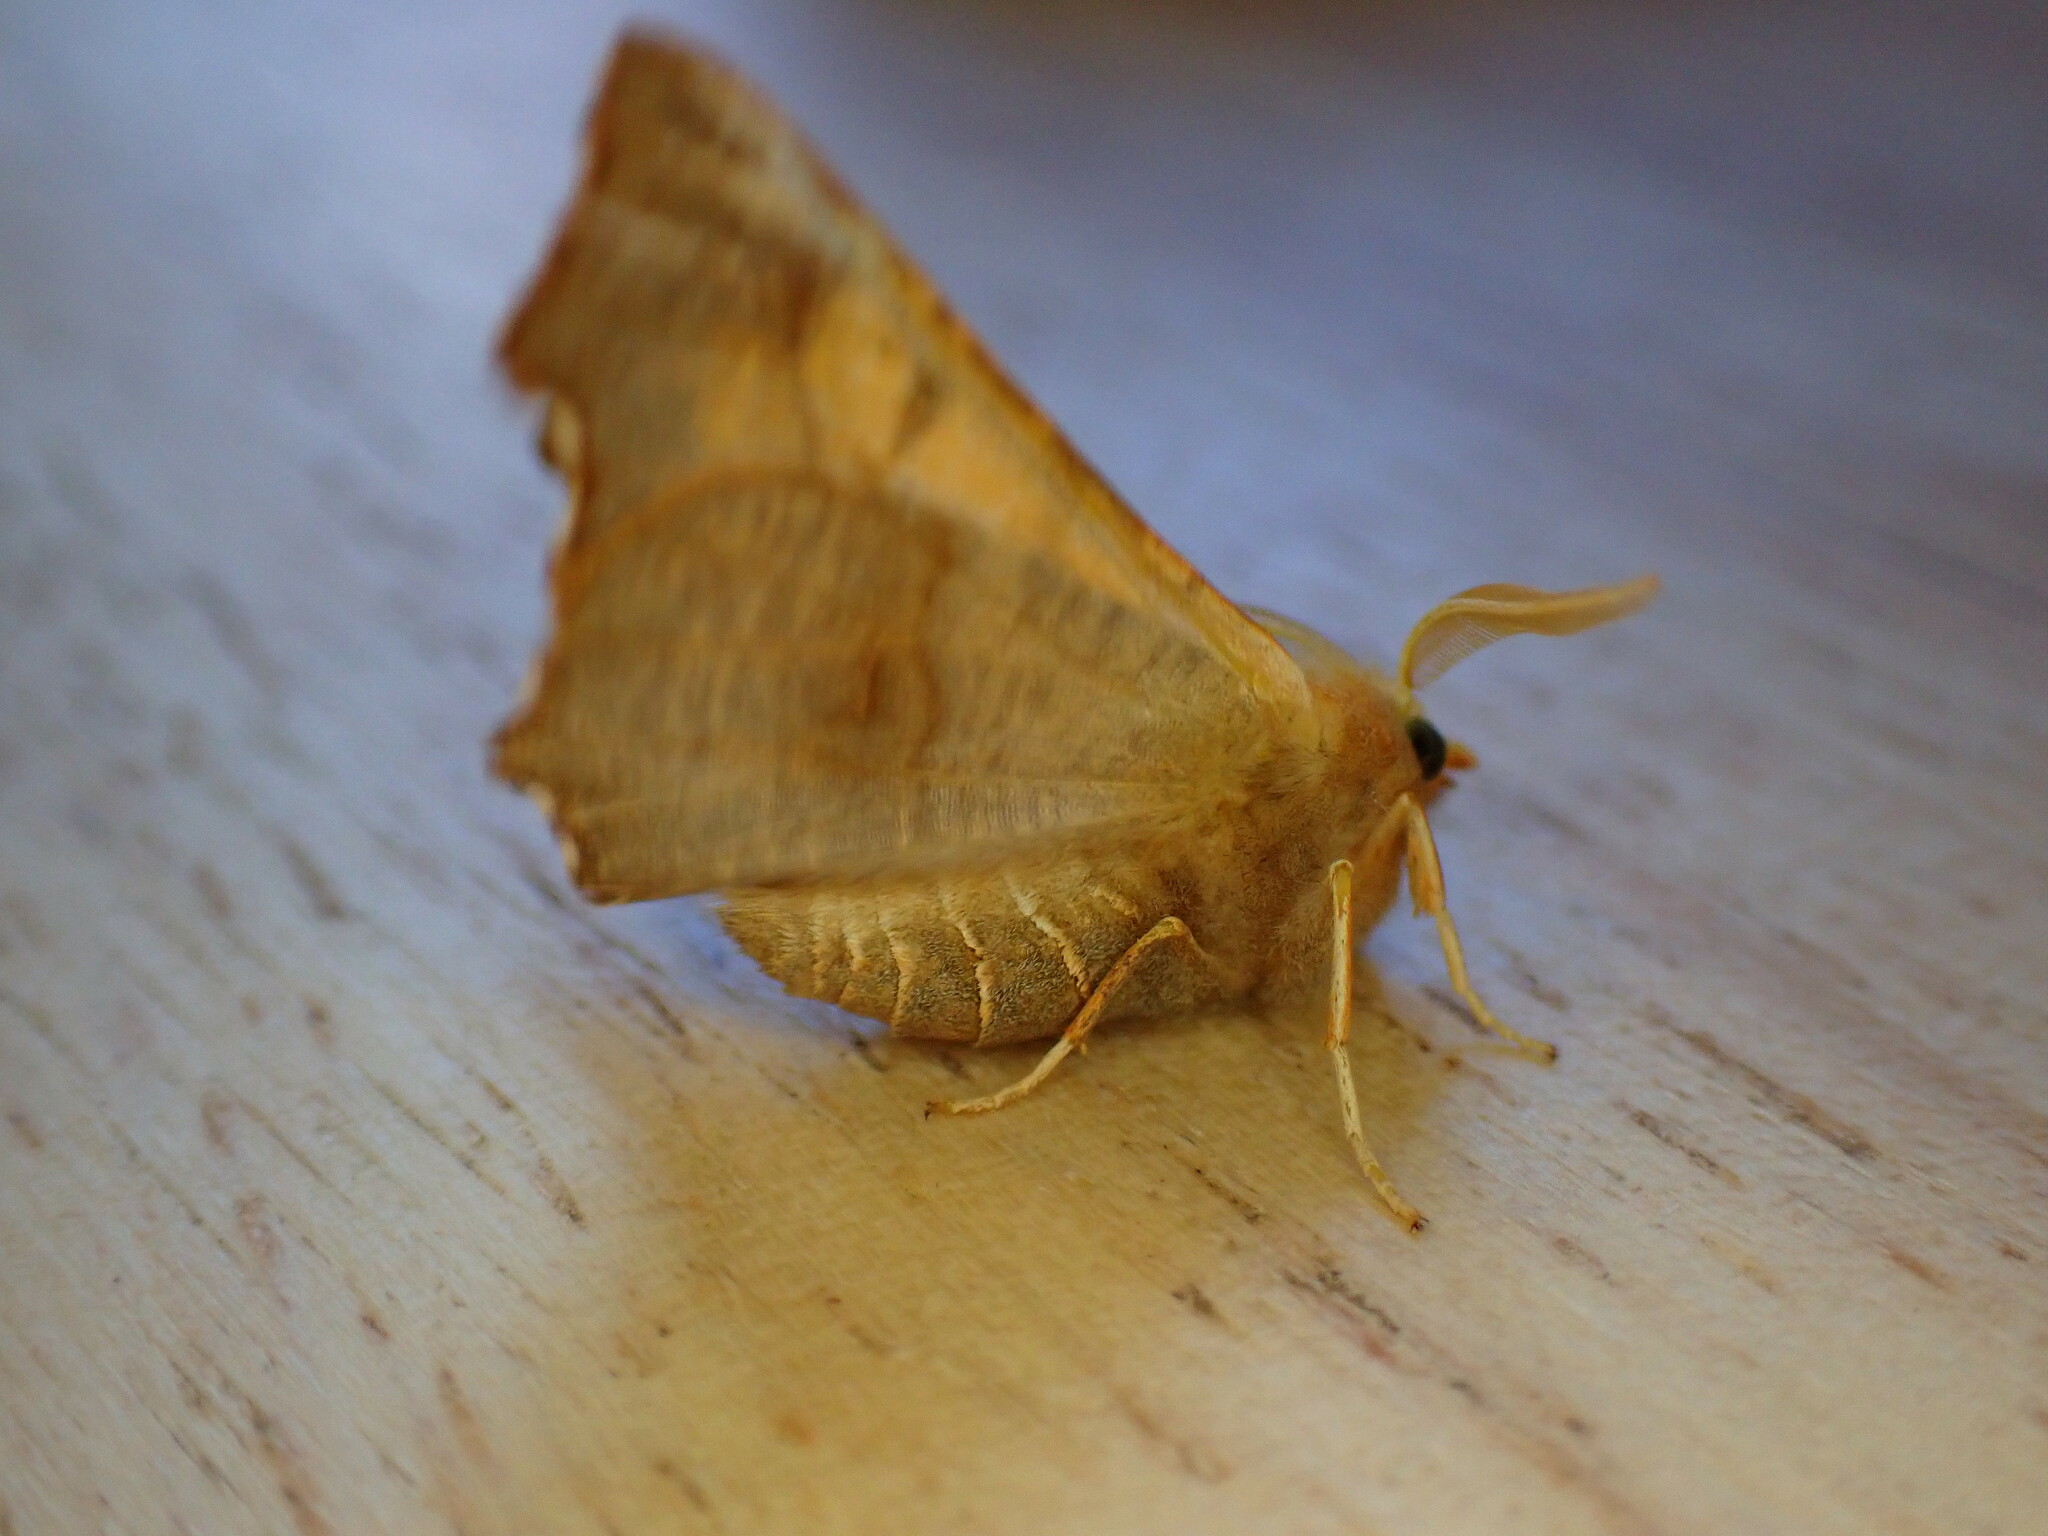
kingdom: Animalia
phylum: Arthropoda
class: Insecta
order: Lepidoptera
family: Geometridae
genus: Ennomos
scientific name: Ennomos fuscantaria
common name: Dusky thorn
